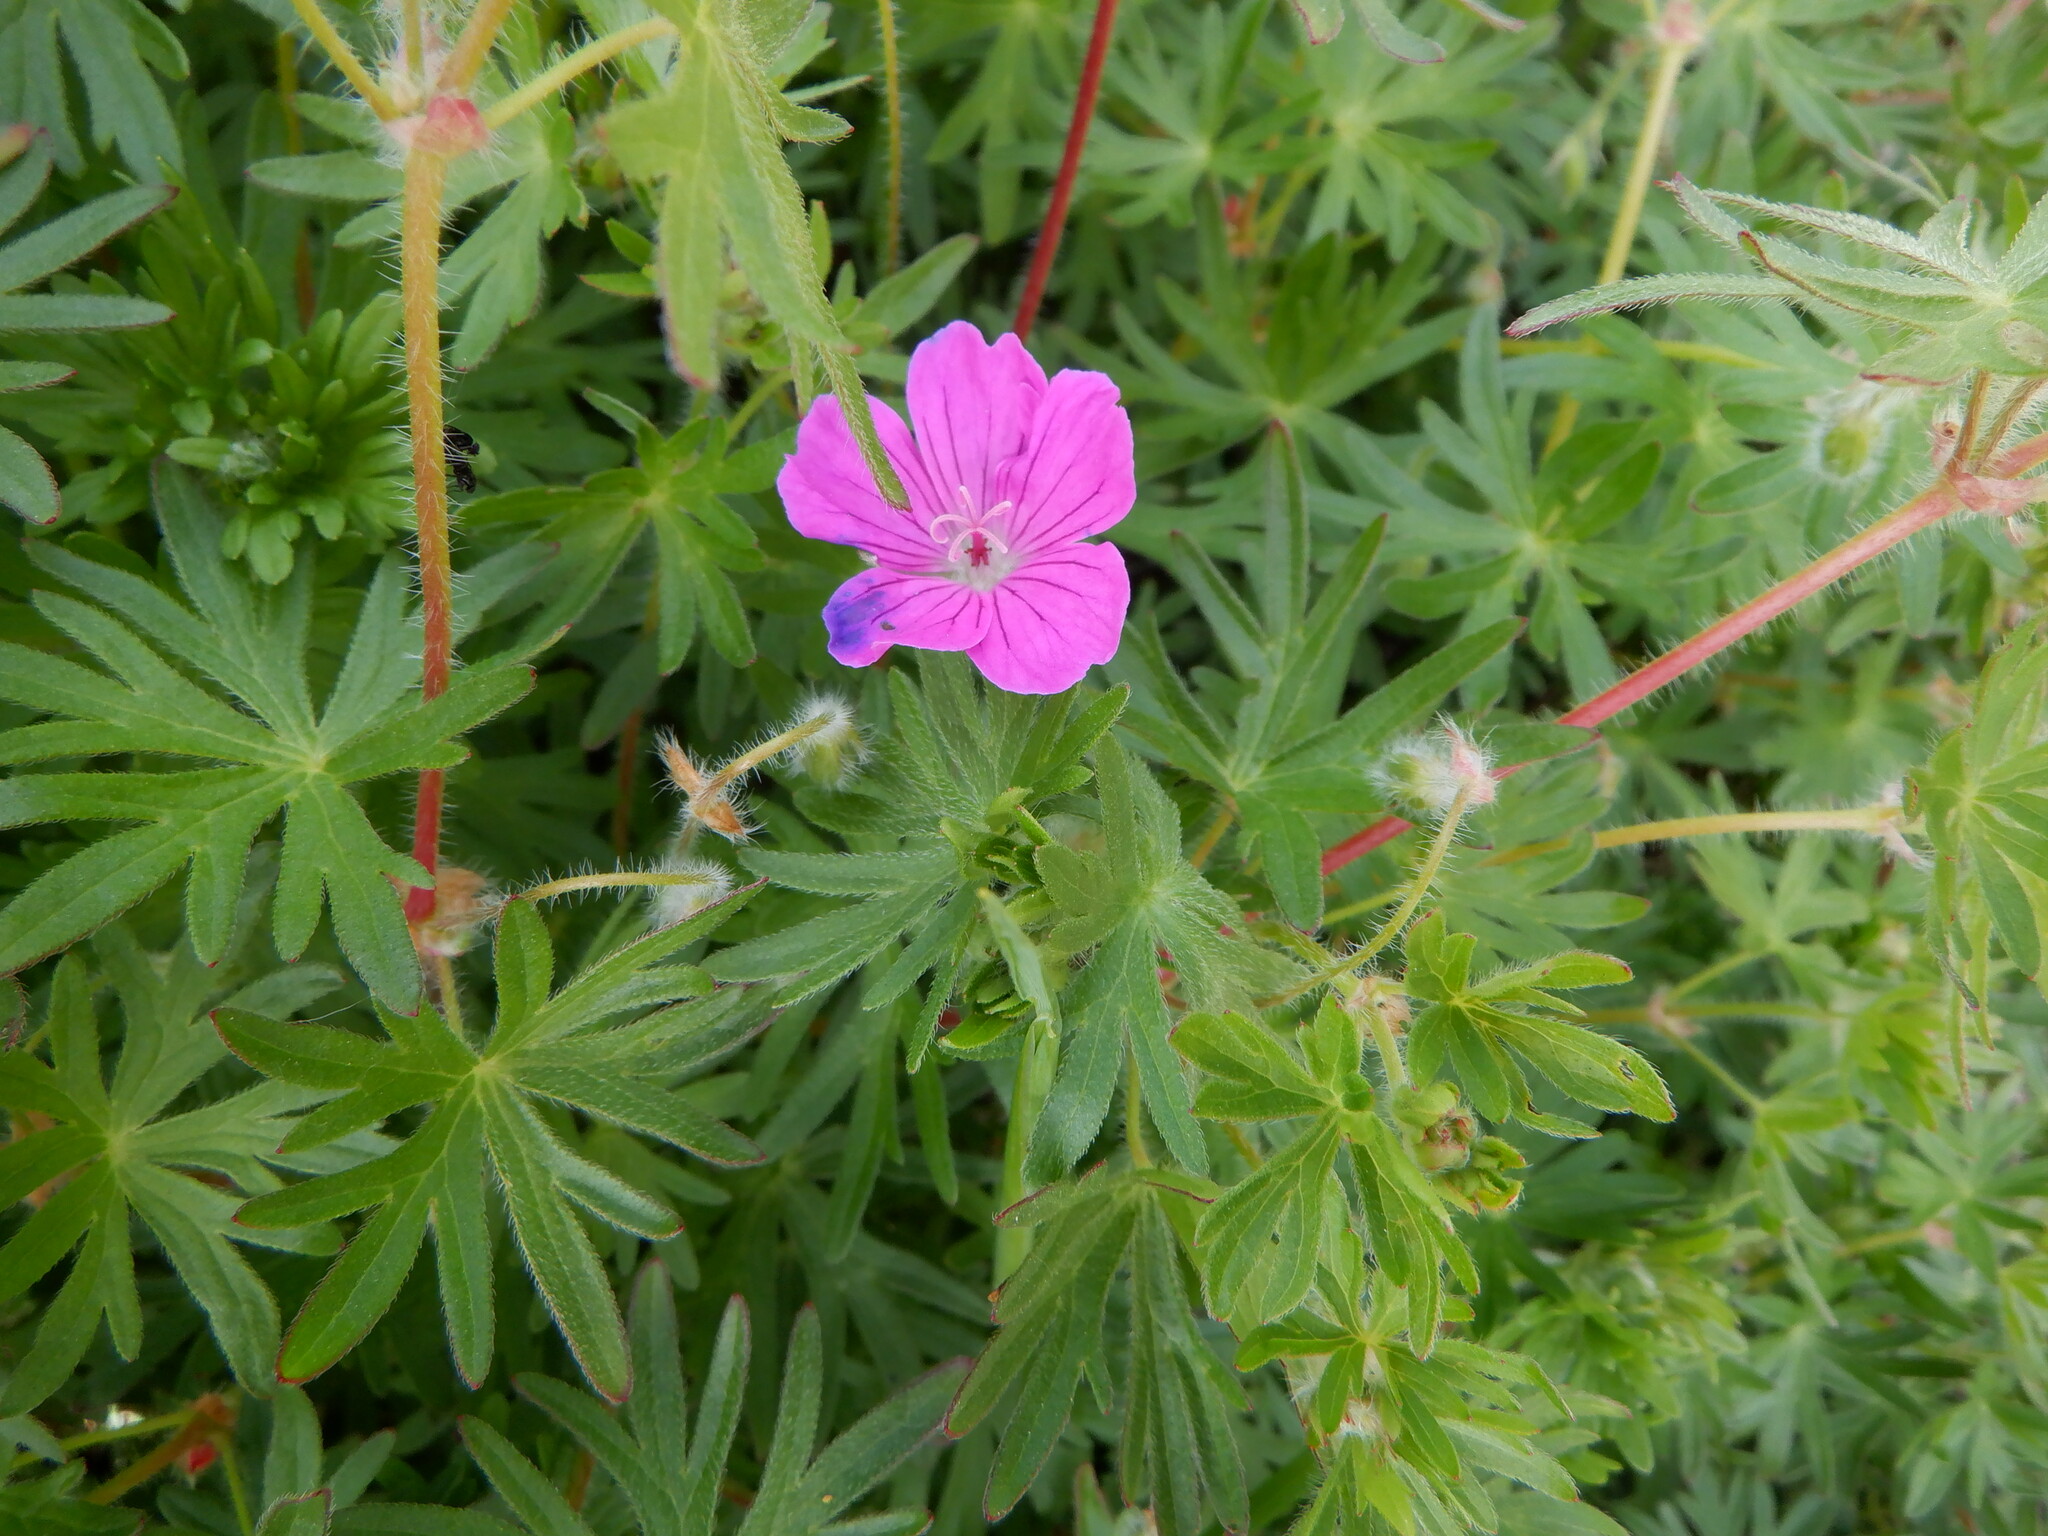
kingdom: Plantae
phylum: Tracheophyta
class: Magnoliopsida
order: Geraniales
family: Geraniaceae
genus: Geranium
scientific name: Geranium sanguineum
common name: Bloody crane's-bill
